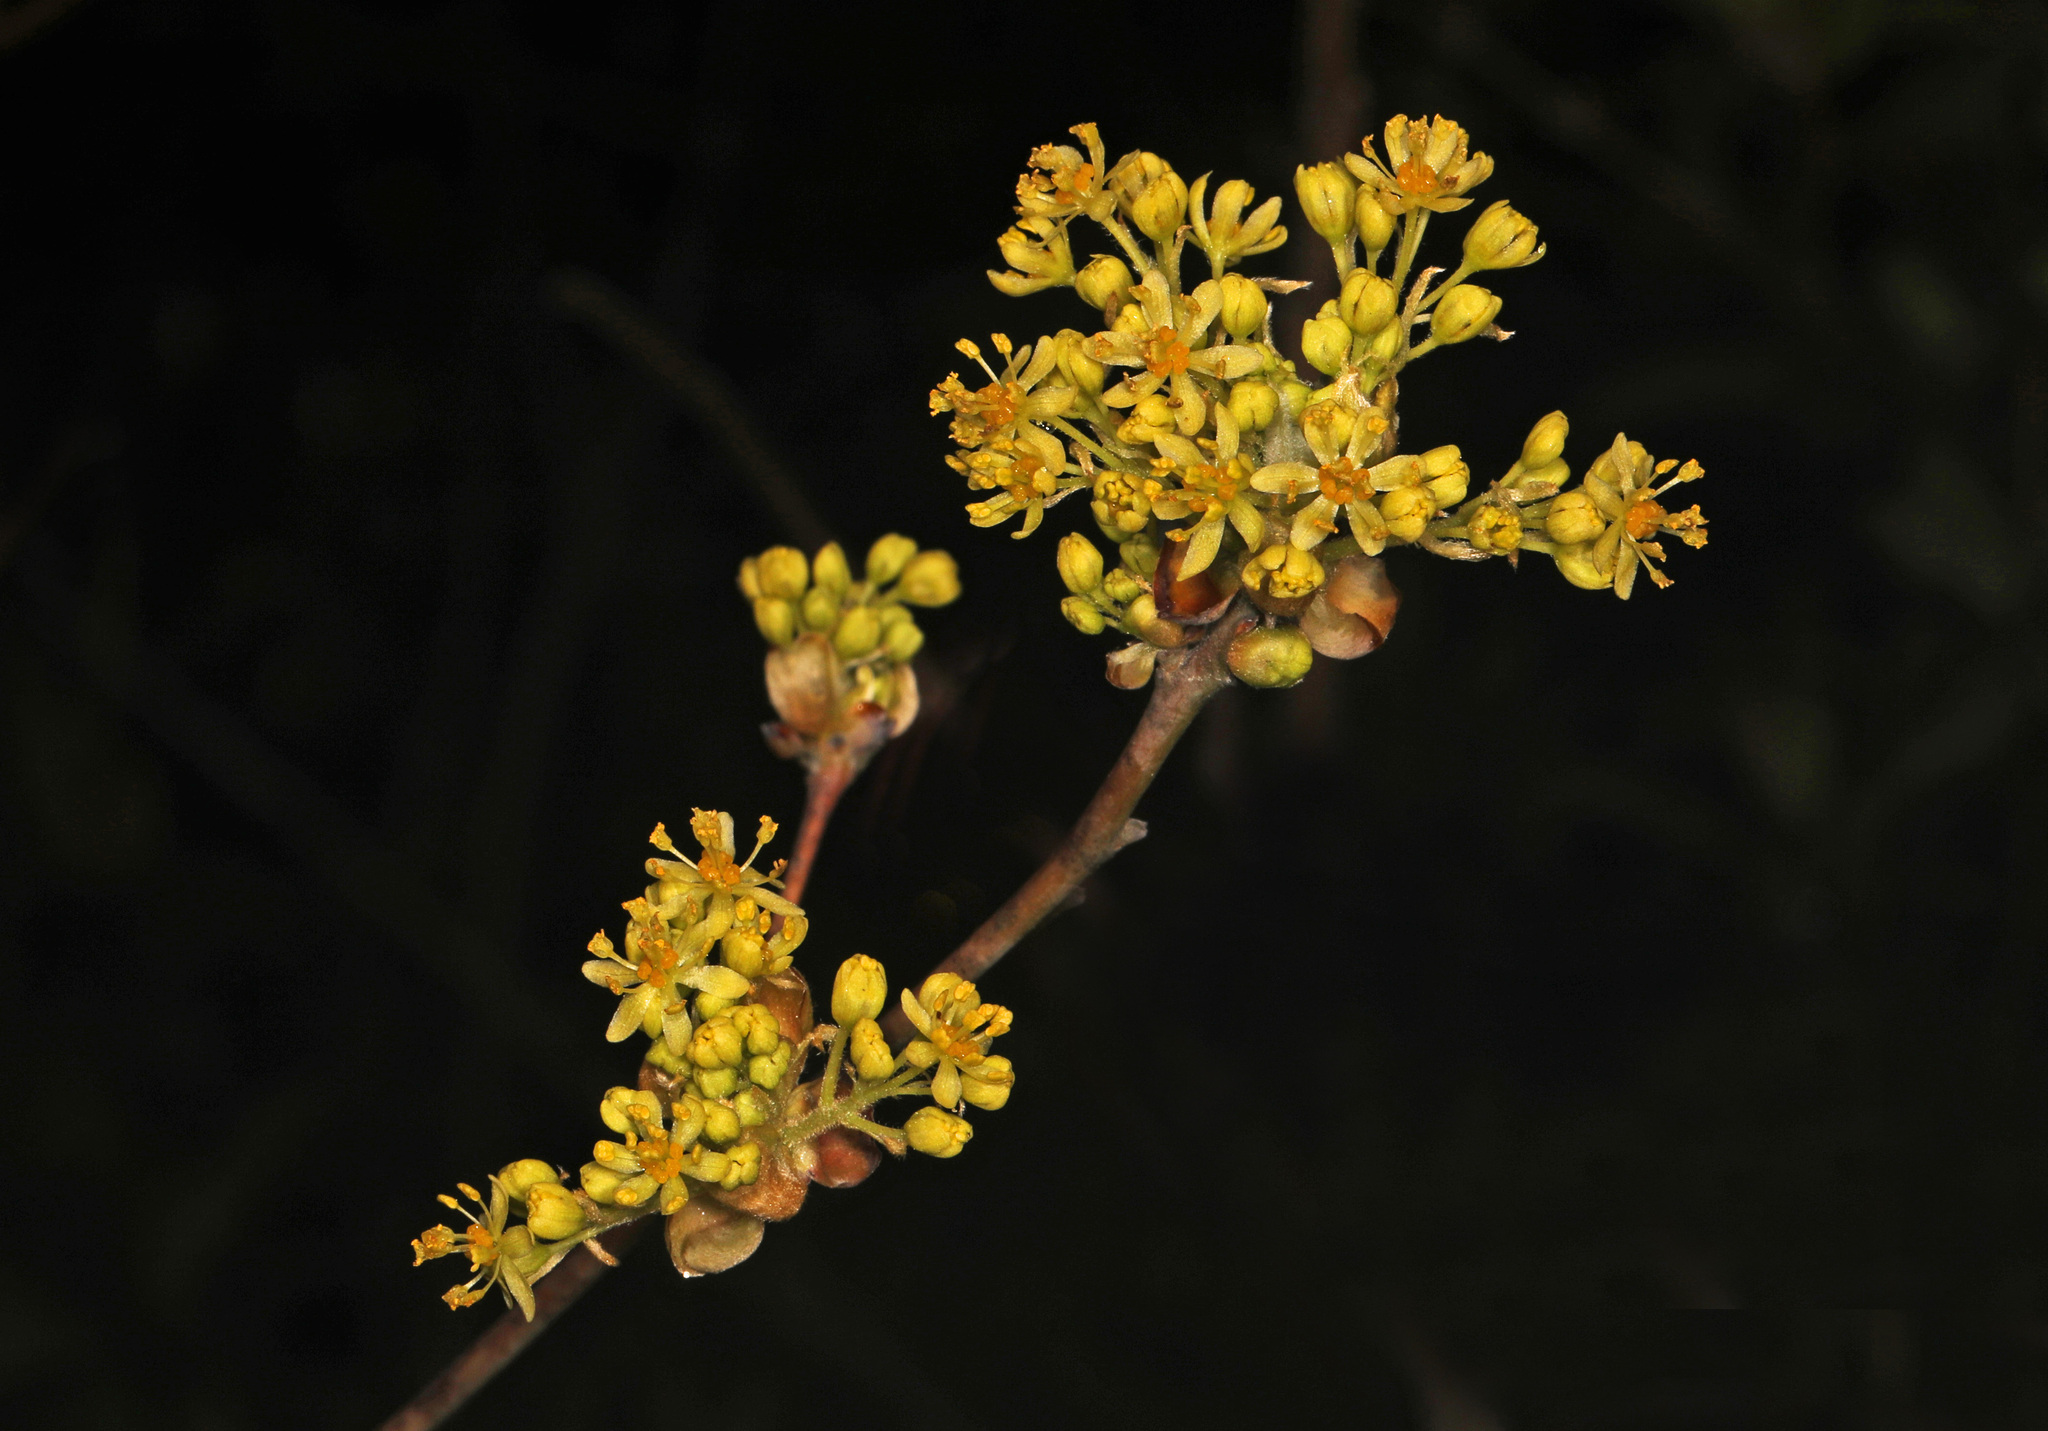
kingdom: Plantae
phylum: Tracheophyta
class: Magnoliopsida
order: Laurales
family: Lauraceae
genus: Sassafras
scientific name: Sassafras albidum
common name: Sassafras
